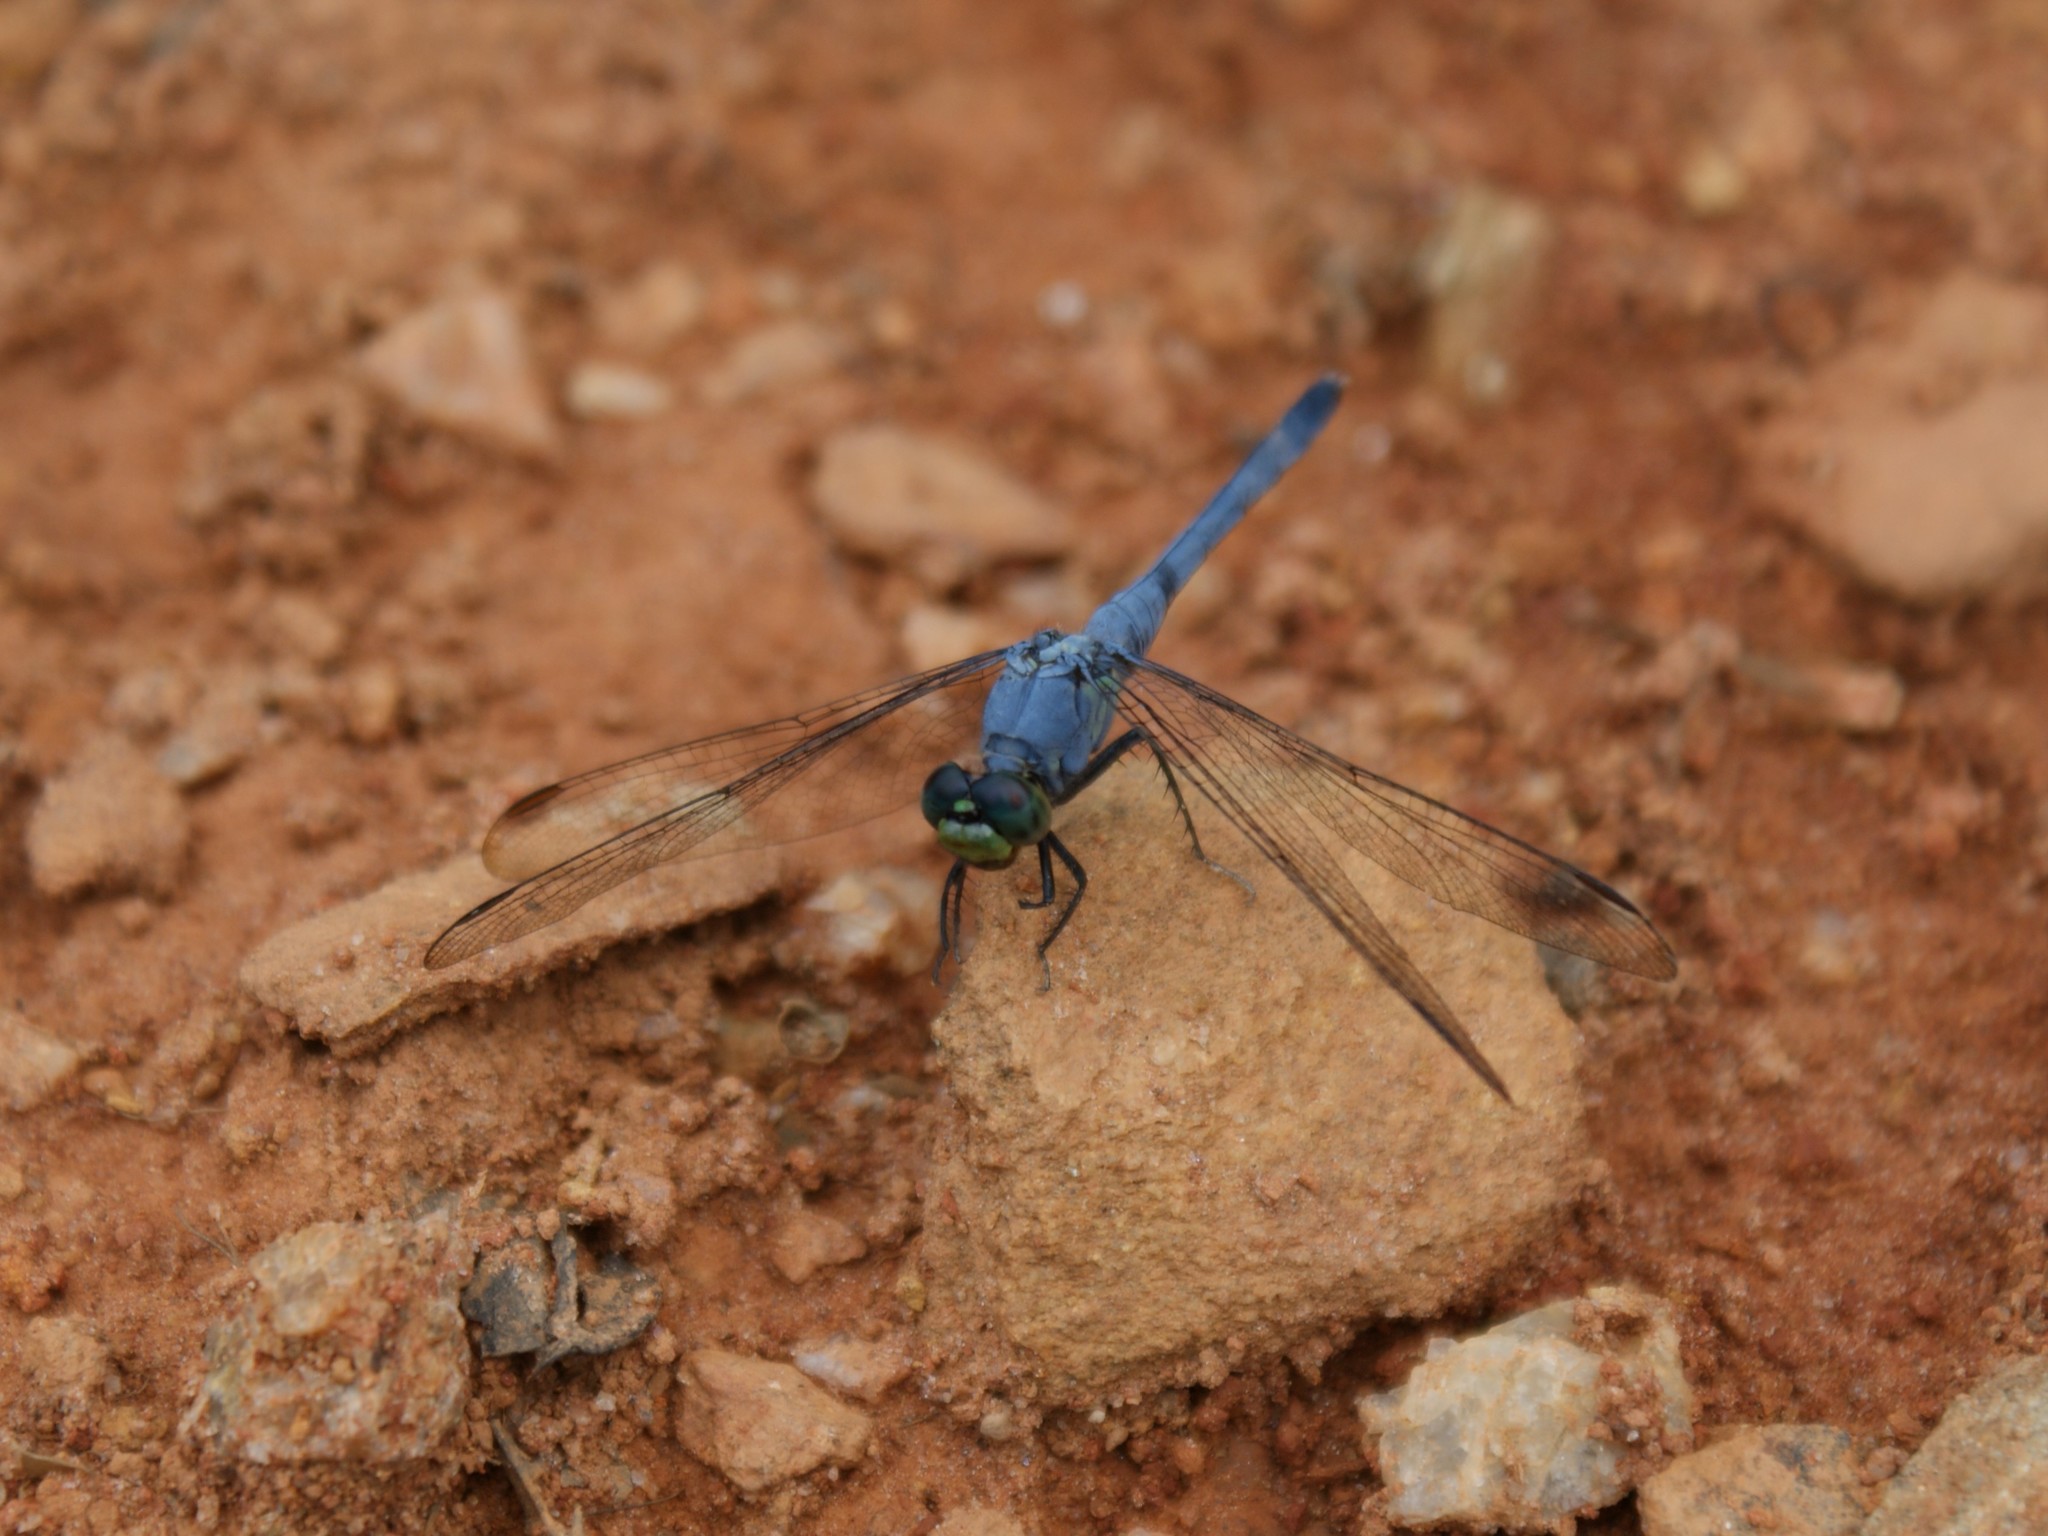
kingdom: Animalia
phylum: Arthropoda
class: Insecta
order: Odonata
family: Libellulidae
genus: Erythemis
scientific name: Erythemis simplicicollis
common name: Eastern pondhawk
